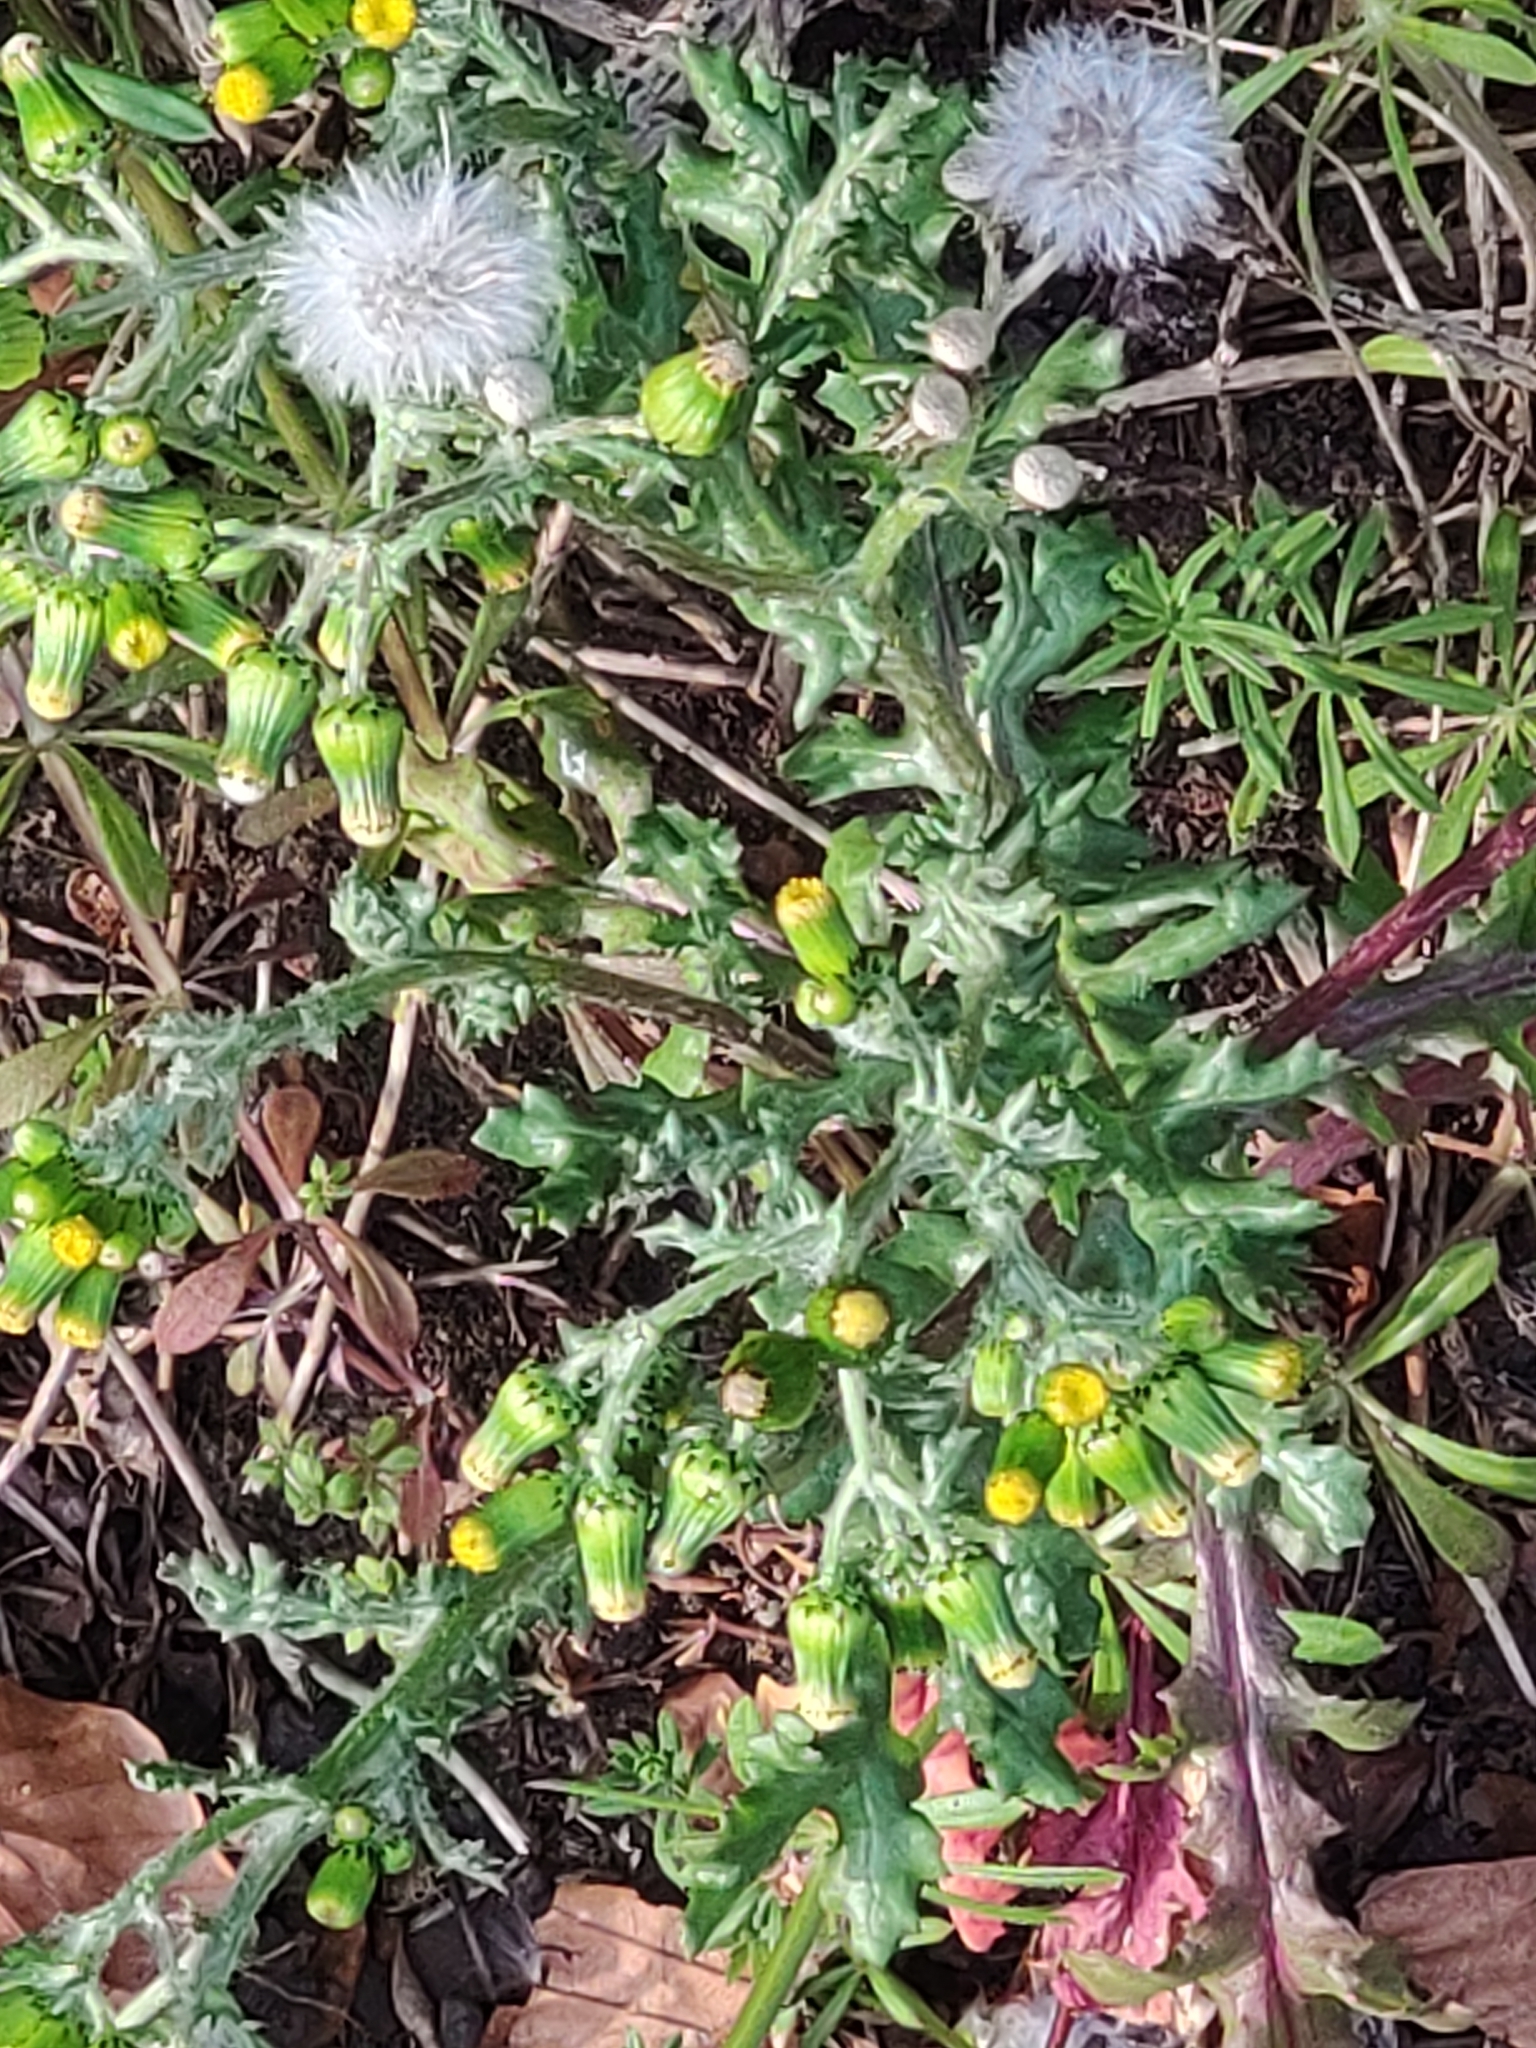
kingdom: Plantae
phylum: Tracheophyta
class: Magnoliopsida
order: Asterales
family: Asteraceae
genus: Senecio
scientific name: Senecio vulgaris
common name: Old-man-in-the-spring
